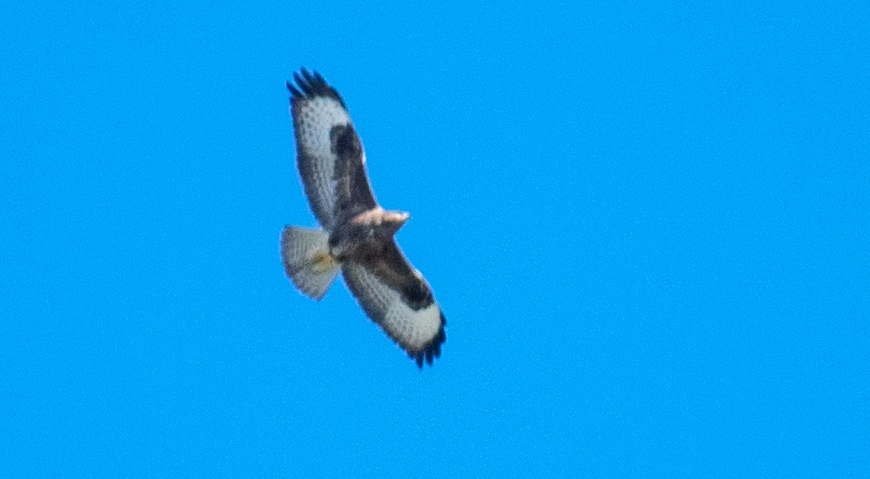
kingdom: Animalia
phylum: Chordata
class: Aves
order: Accipitriformes
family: Accipitridae
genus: Buteo
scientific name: Buteo buteo
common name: Common buzzard
